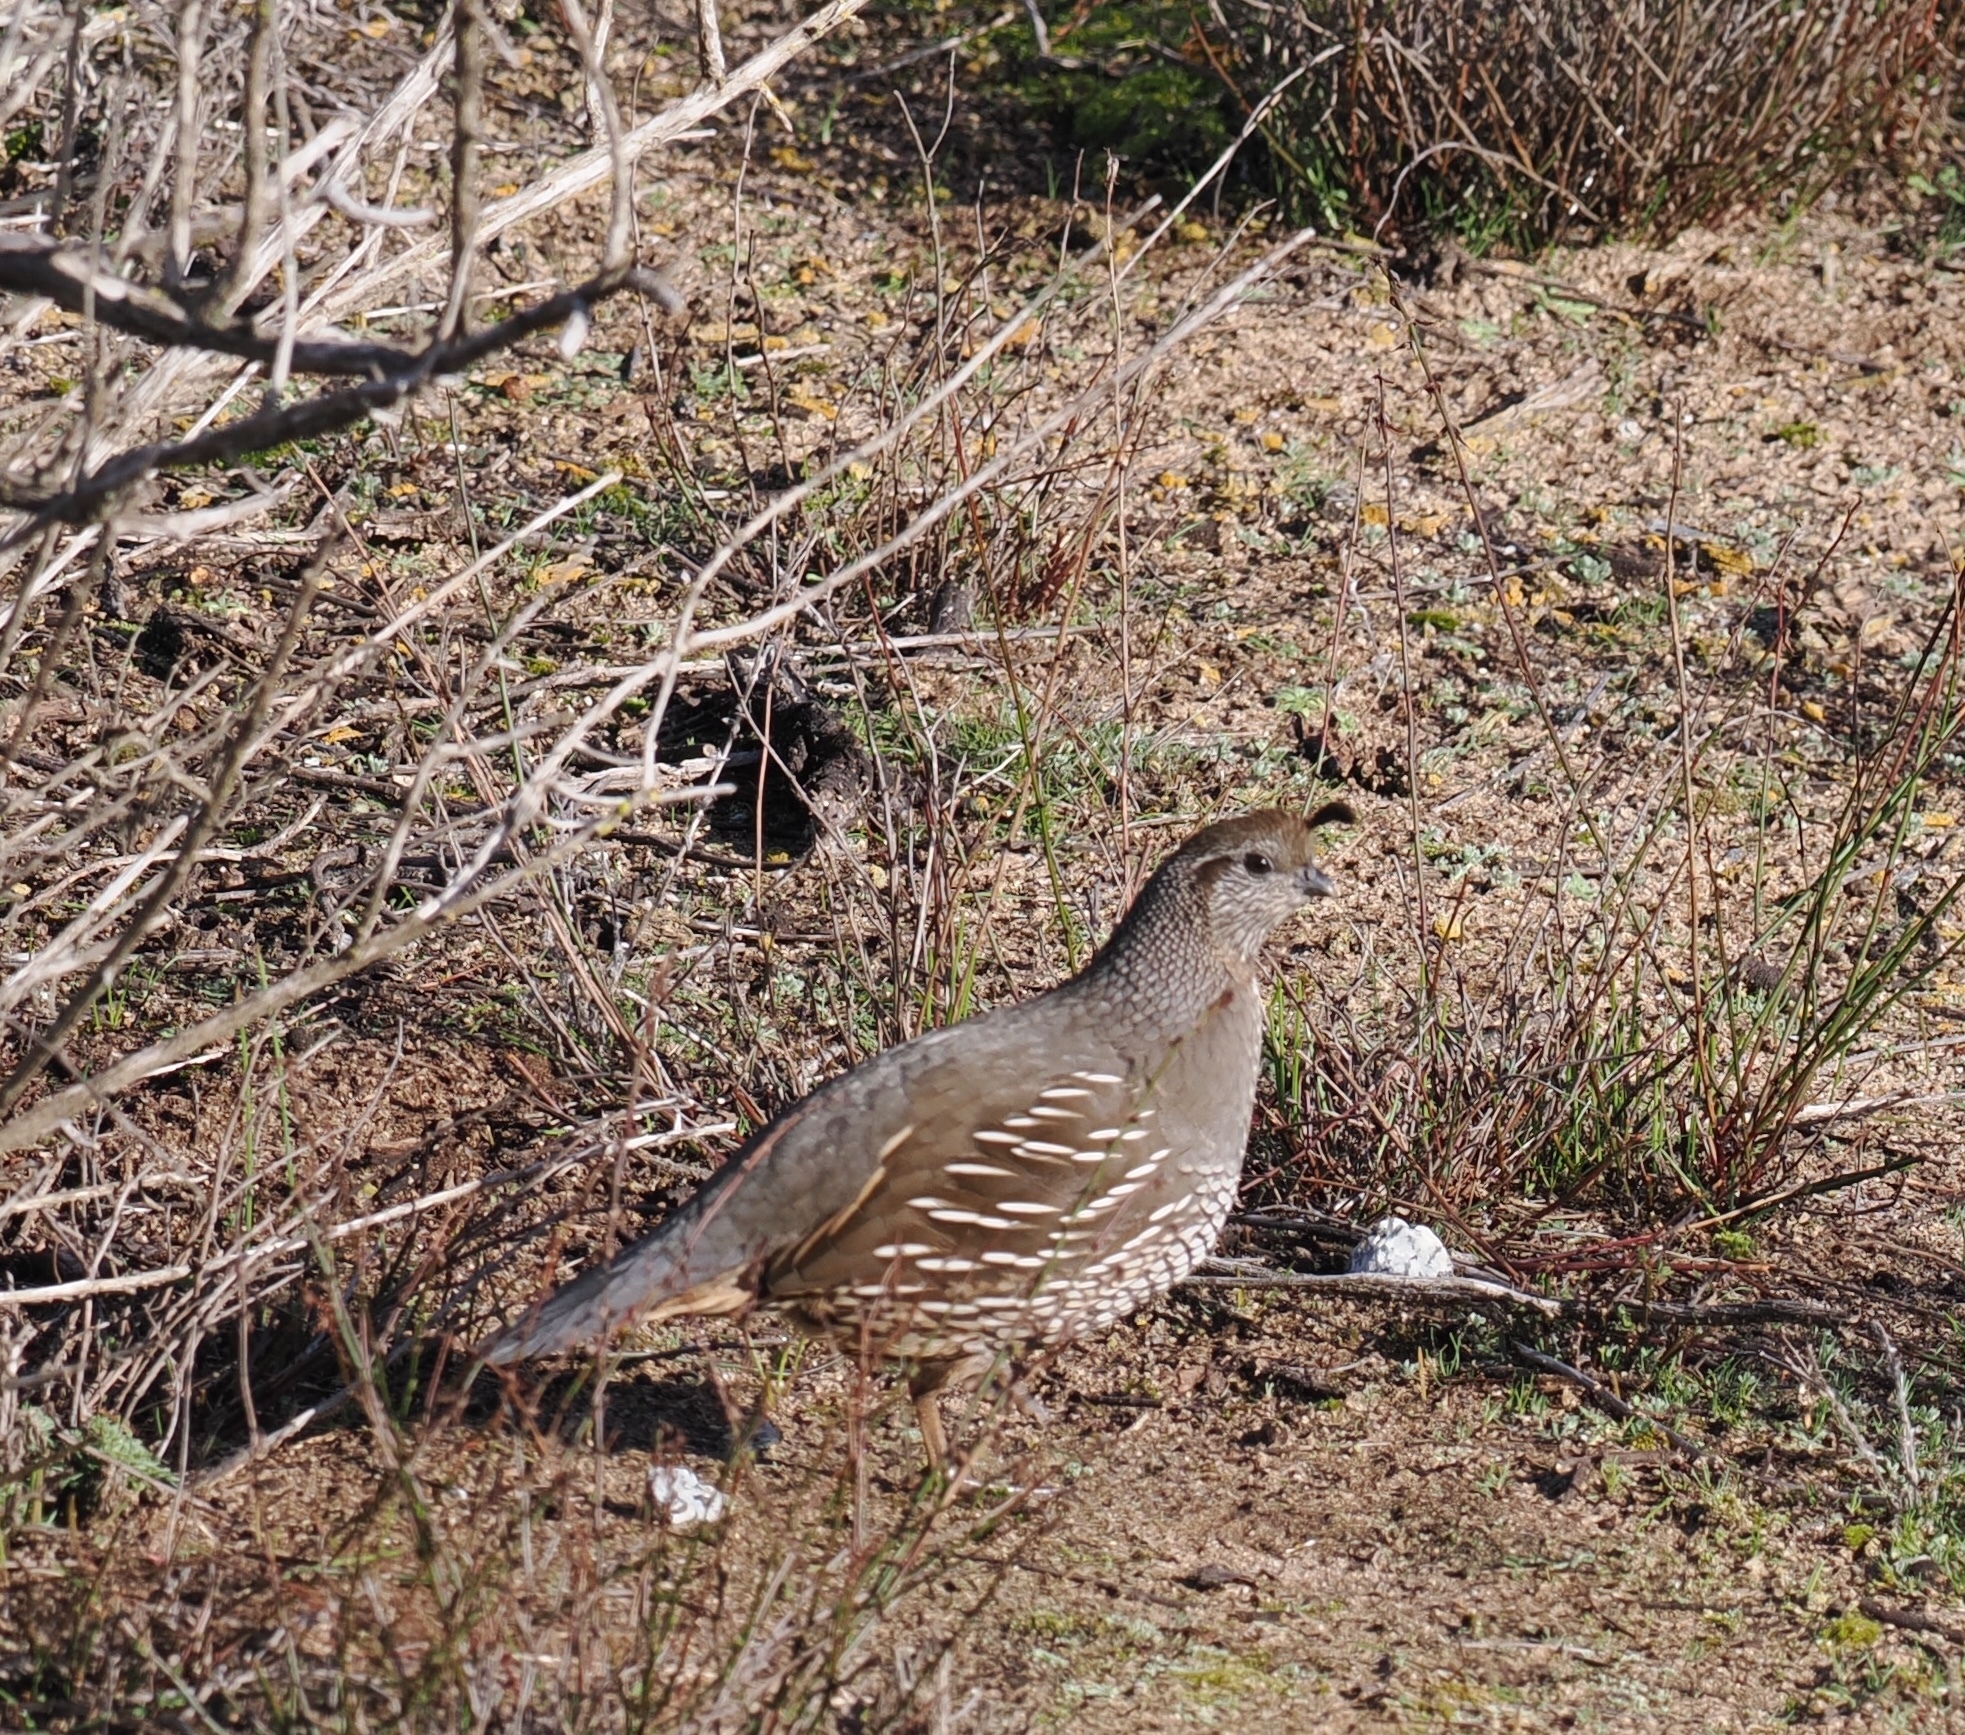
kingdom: Animalia
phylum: Chordata
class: Aves
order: Galliformes
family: Odontophoridae
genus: Callipepla
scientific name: Callipepla californica
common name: California quail
